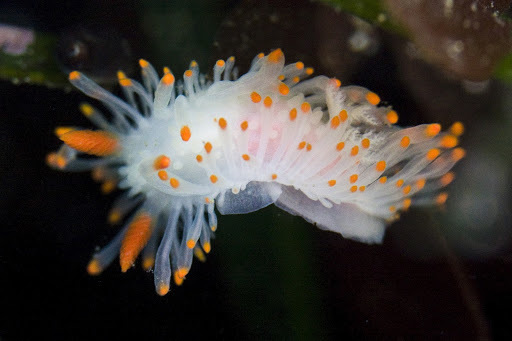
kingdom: Animalia
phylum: Mollusca
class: Gastropoda
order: Nudibranchia
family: Polyceridae
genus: Limacia
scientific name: Limacia cockerelli
